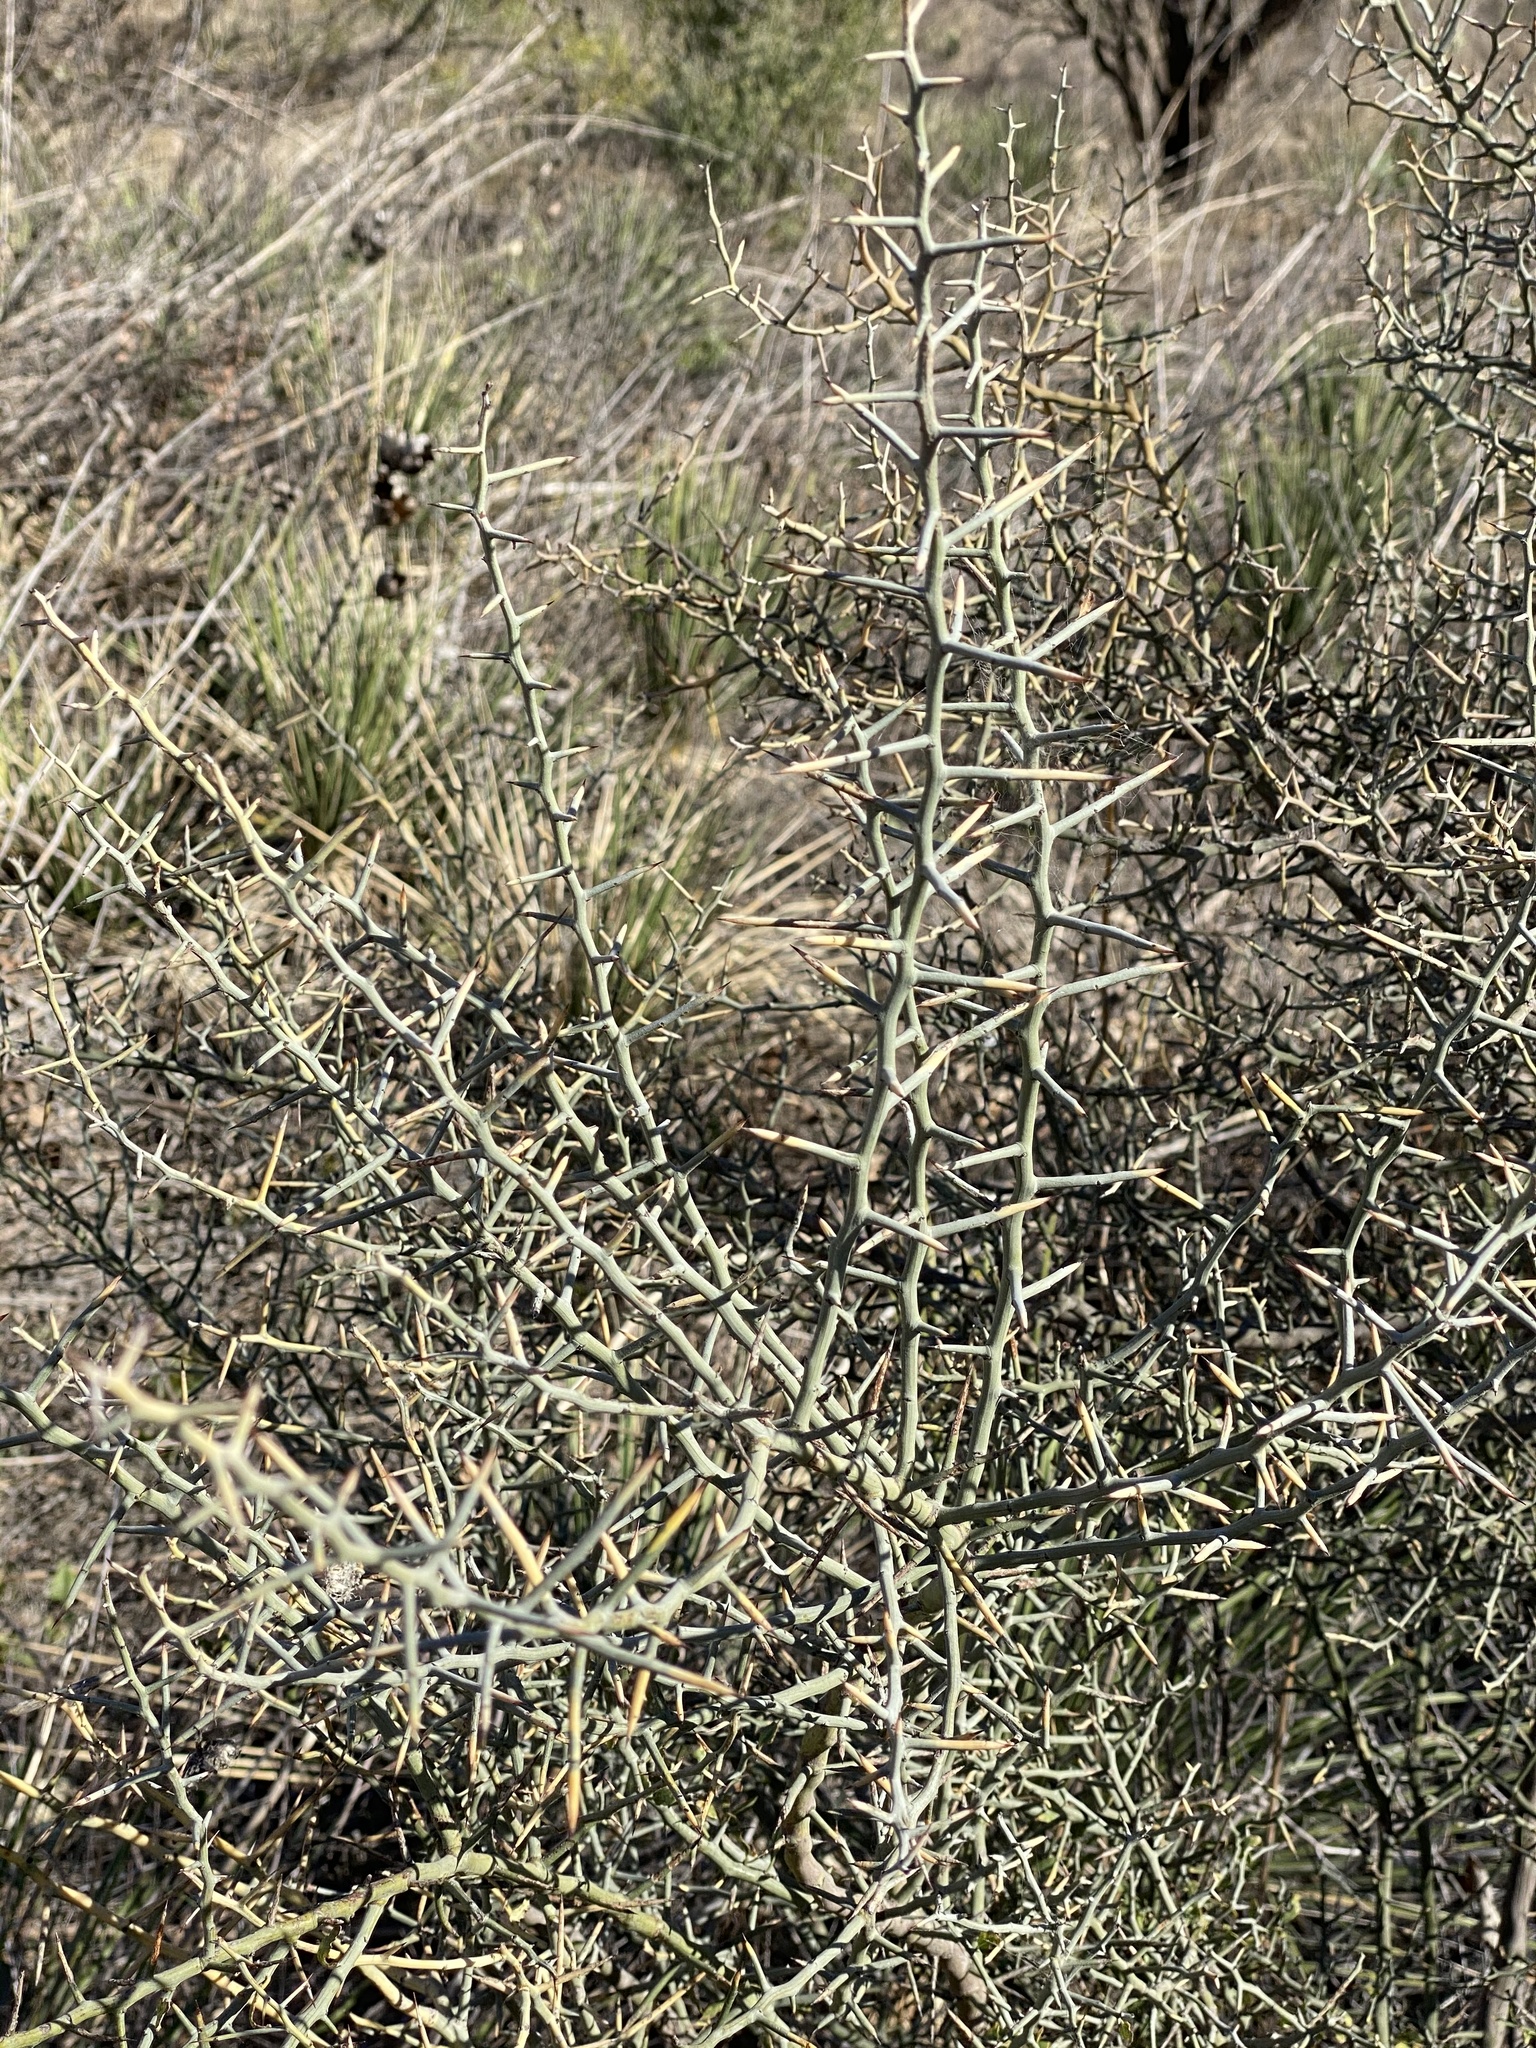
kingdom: Plantae
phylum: Tracheophyta
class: Magnoliopsida
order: Rosales
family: Rhamnaceae
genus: Sarcomphalus
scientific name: Sarcomphalus obtusifolius
